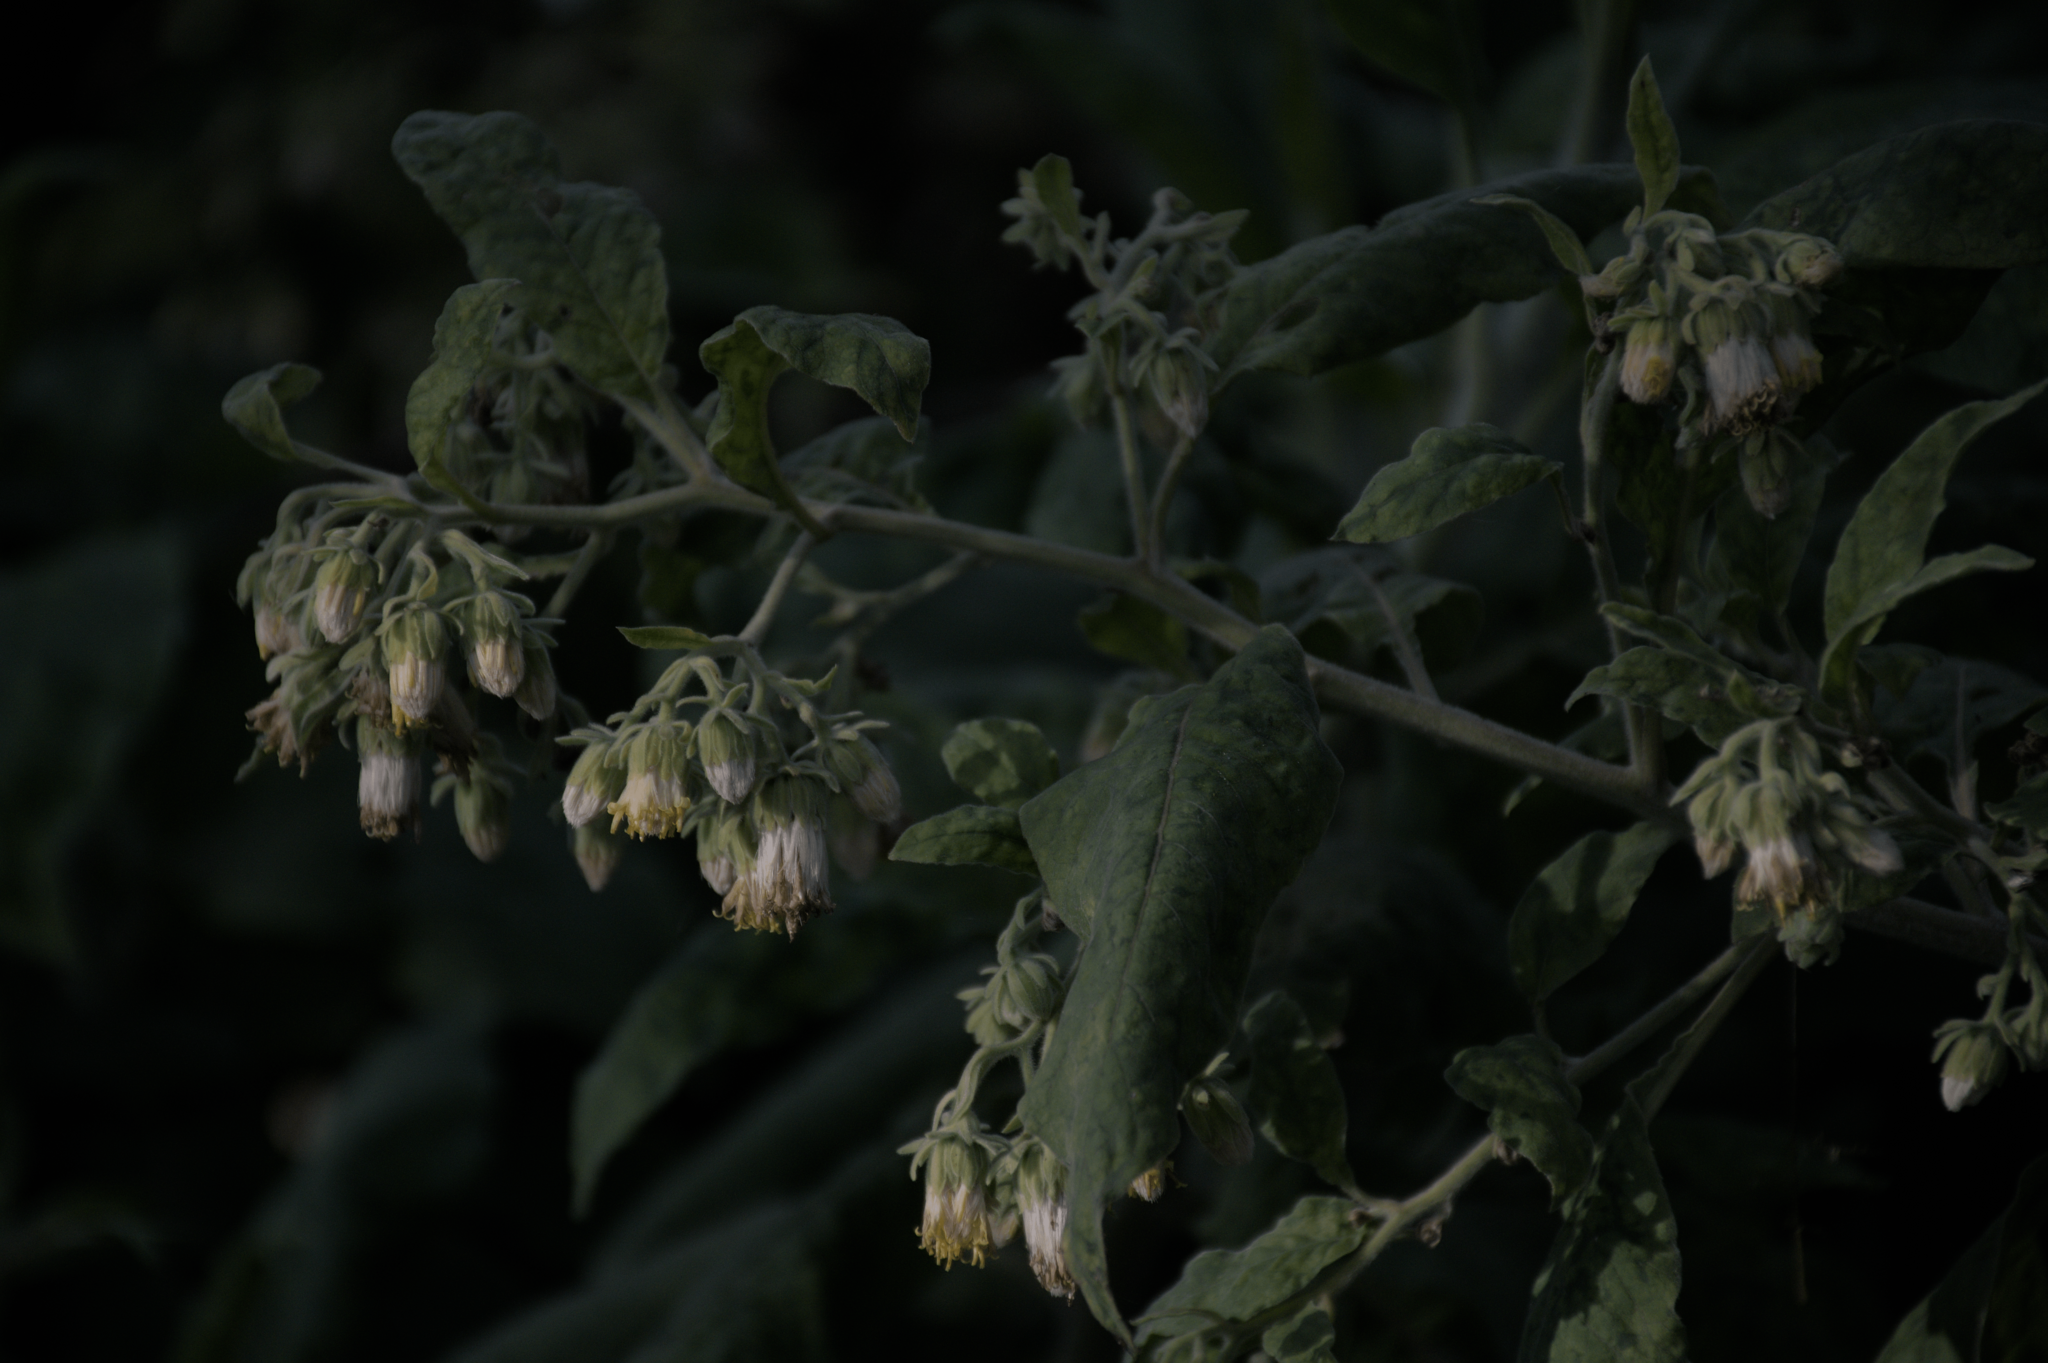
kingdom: Plantae
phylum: Tracheophyta
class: Magnoliopsida
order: Asterales
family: Asteraceae
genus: Trixis
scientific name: Trixis praestans
